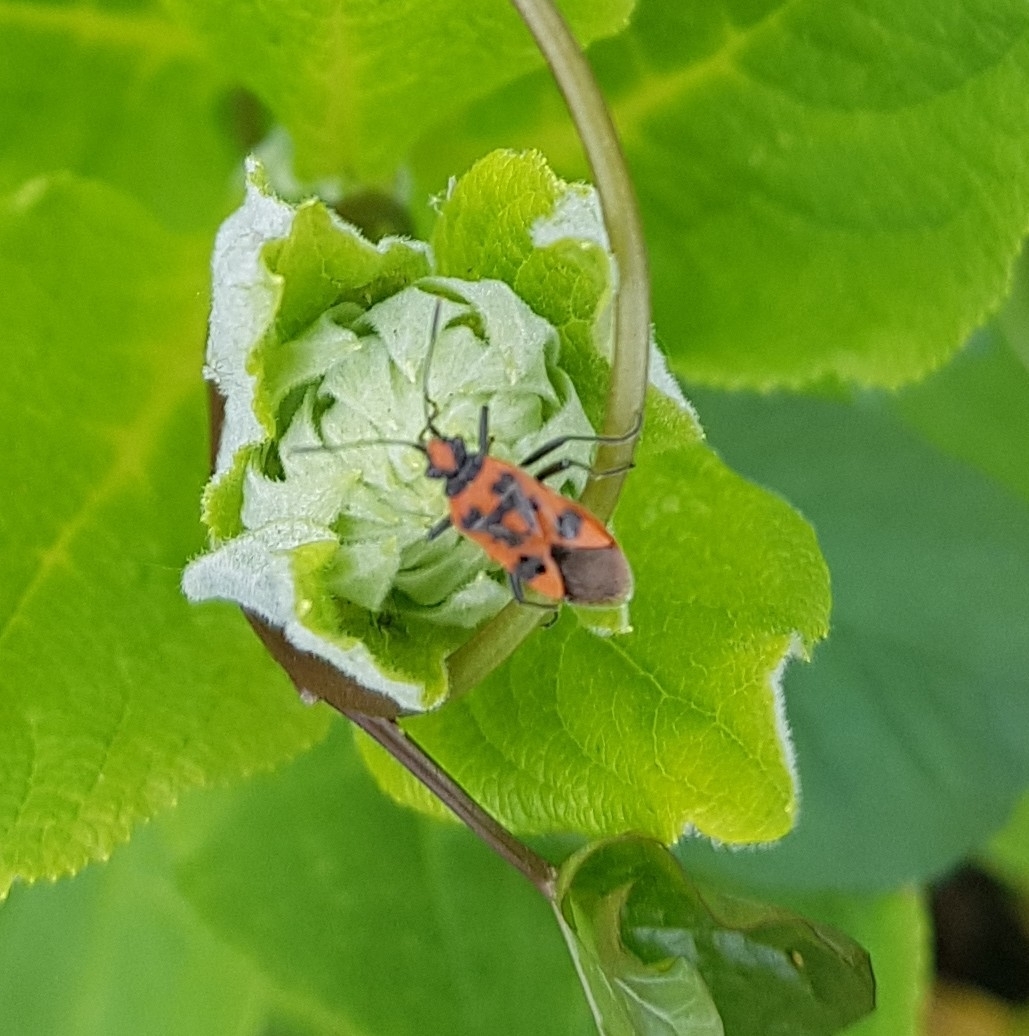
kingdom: Animalia
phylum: Arthropoda
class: Insecta
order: Hemiptera
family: Rhopalidae
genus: Corizus
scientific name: Corizus hyoscyami
